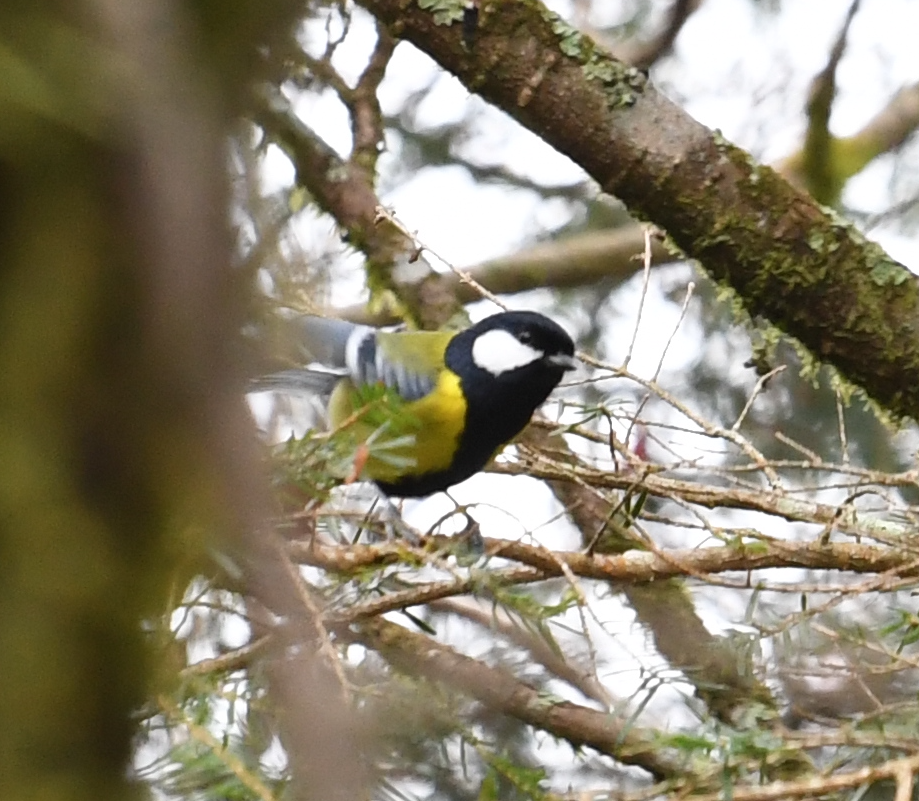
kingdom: Animalia
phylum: Chordata
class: Aves
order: Passeriformes
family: Paridae
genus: Parus
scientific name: Parus monticolus
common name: Green-backed tit
